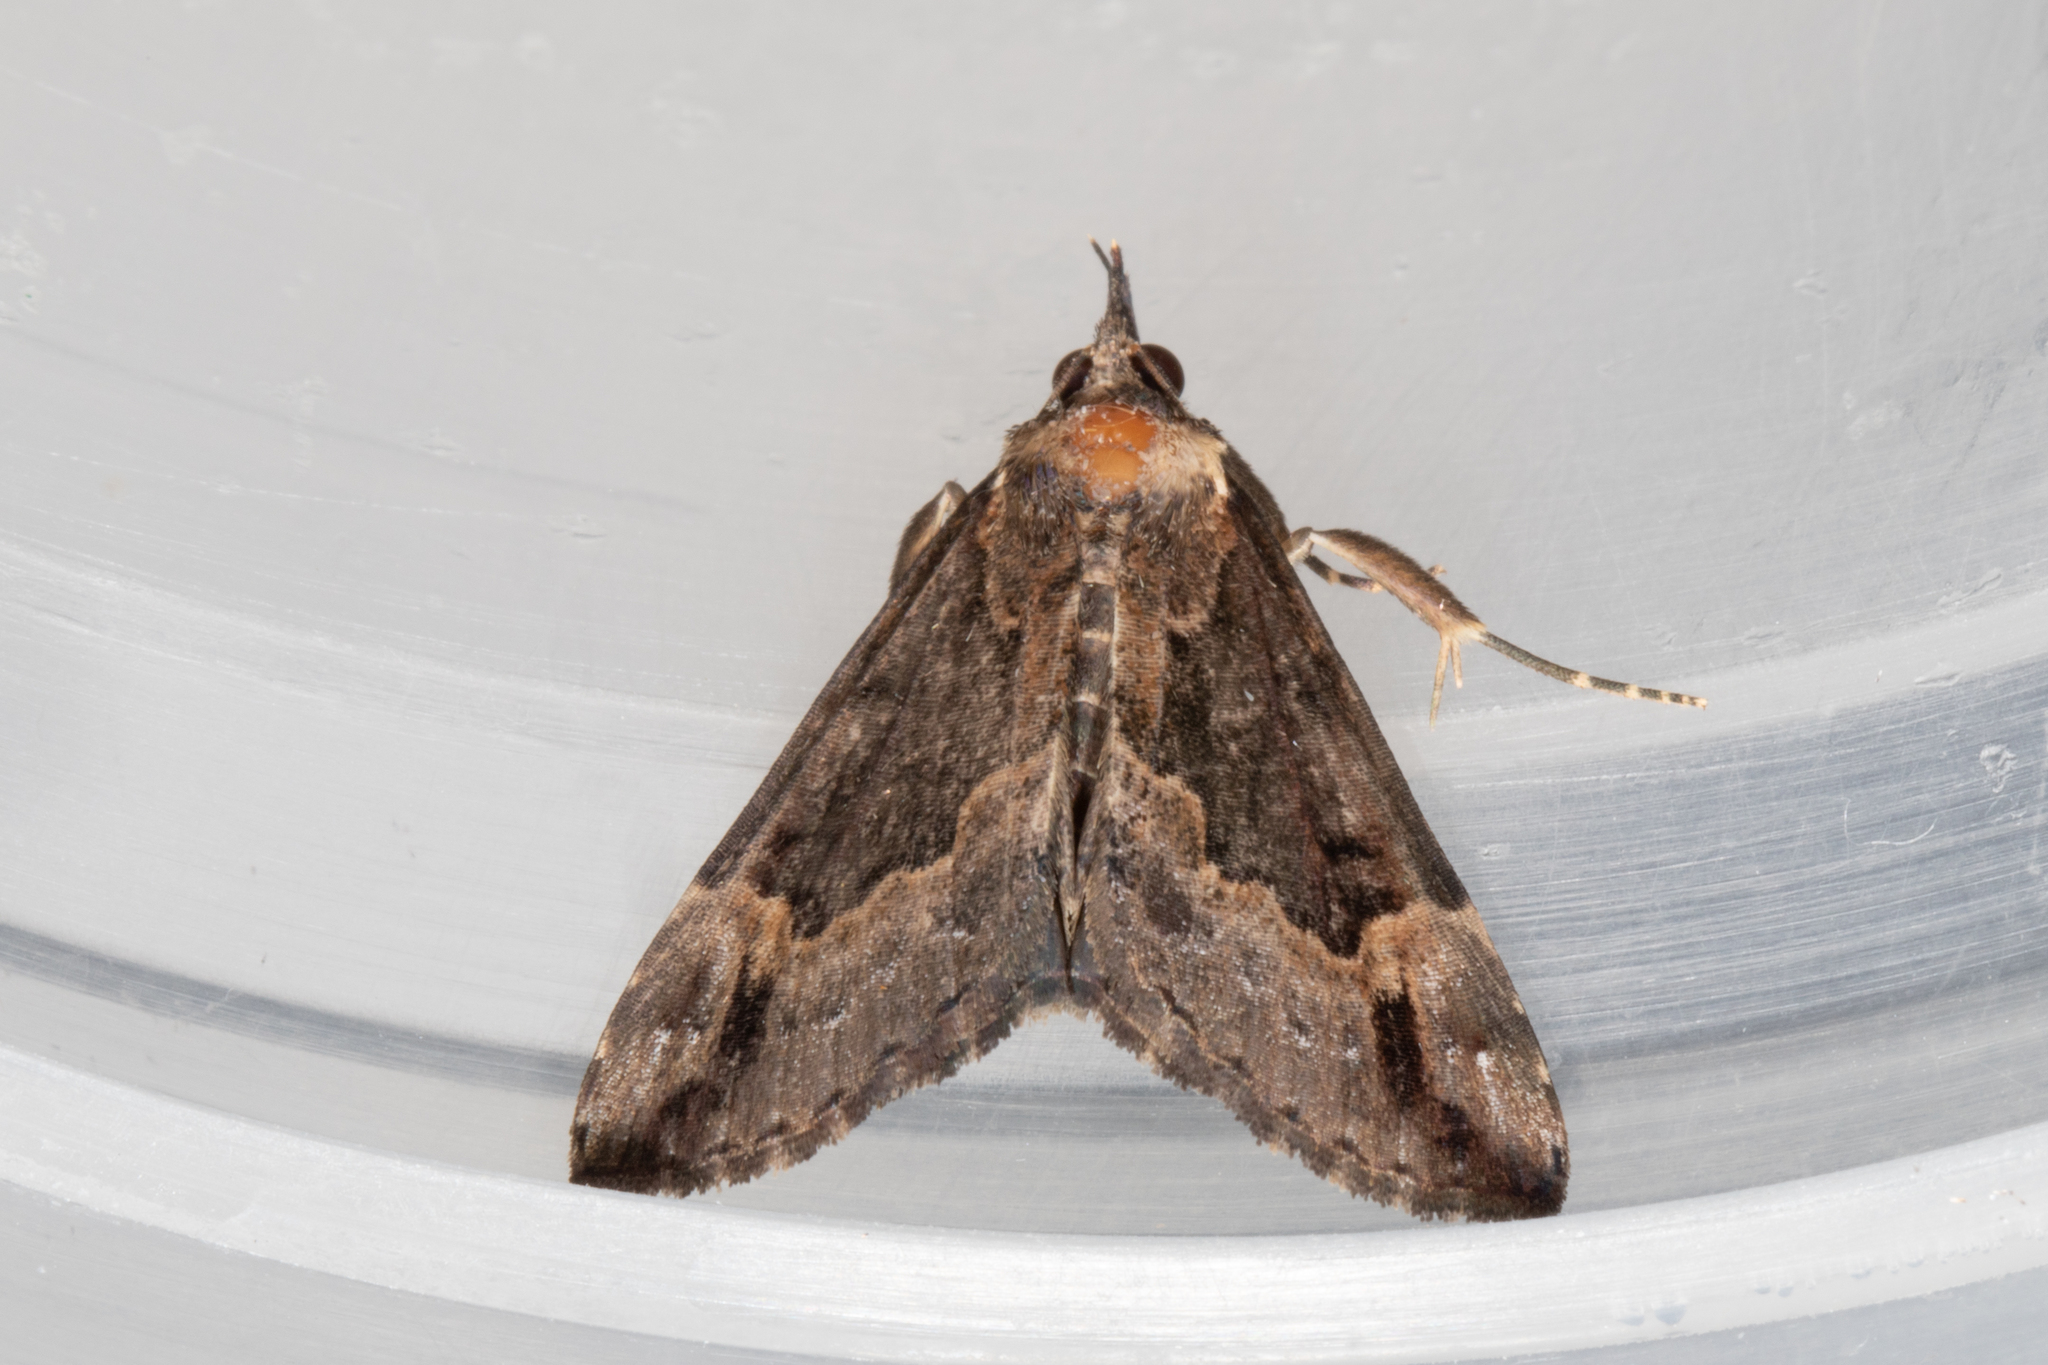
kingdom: Animalia
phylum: Arthropoda
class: Insecta
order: Lepidoptera
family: Erebidae
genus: Hypena
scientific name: Hypena palparia
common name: Mottled bomolocha moth
